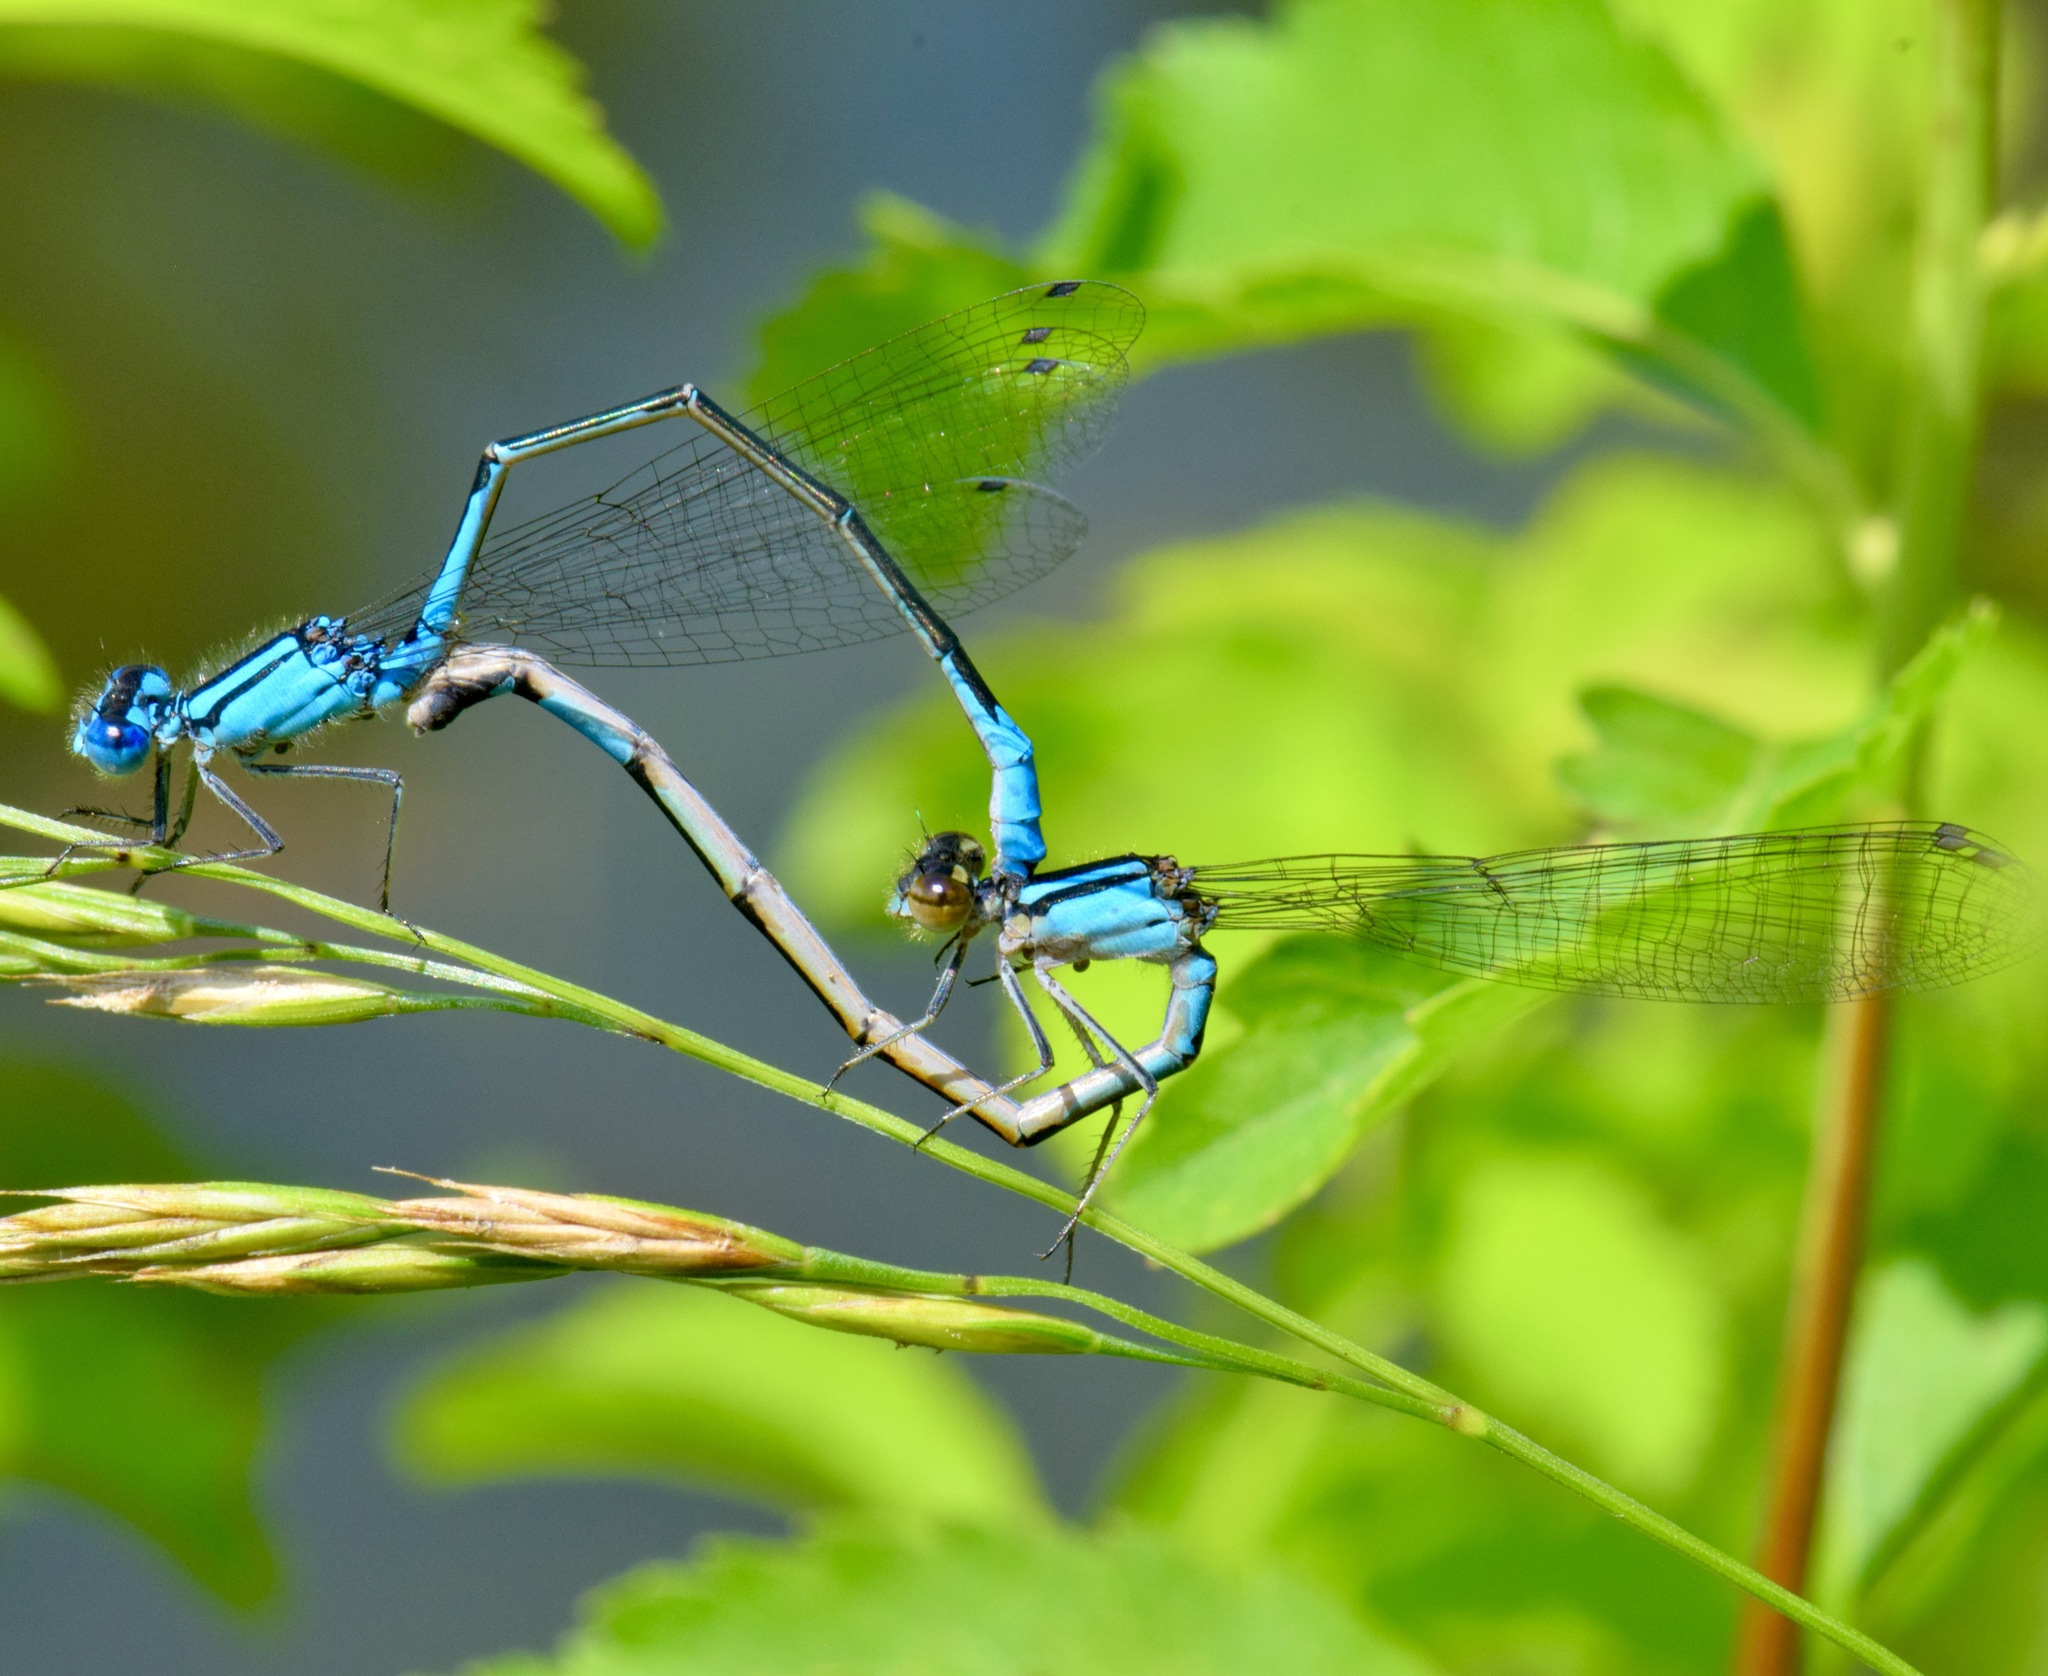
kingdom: Animalia
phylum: Arthropoda
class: Insecta
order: Odonata
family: Coenagrionidae
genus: Enallagma
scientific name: Enallagma aspersum
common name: Azure bluet
